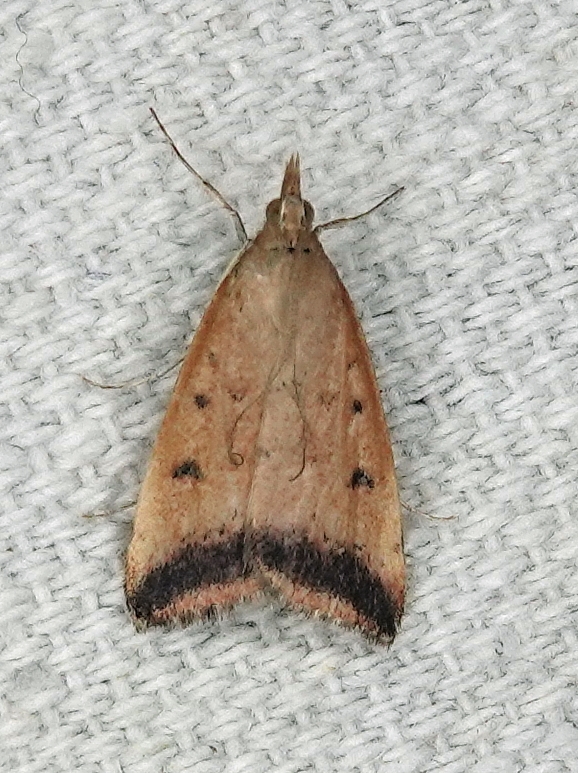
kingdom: Animalia
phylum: Arthropoda
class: Insecta
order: Lepidoptera
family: Crambidae
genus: Pyrausta
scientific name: Pyrausta fodinalis
